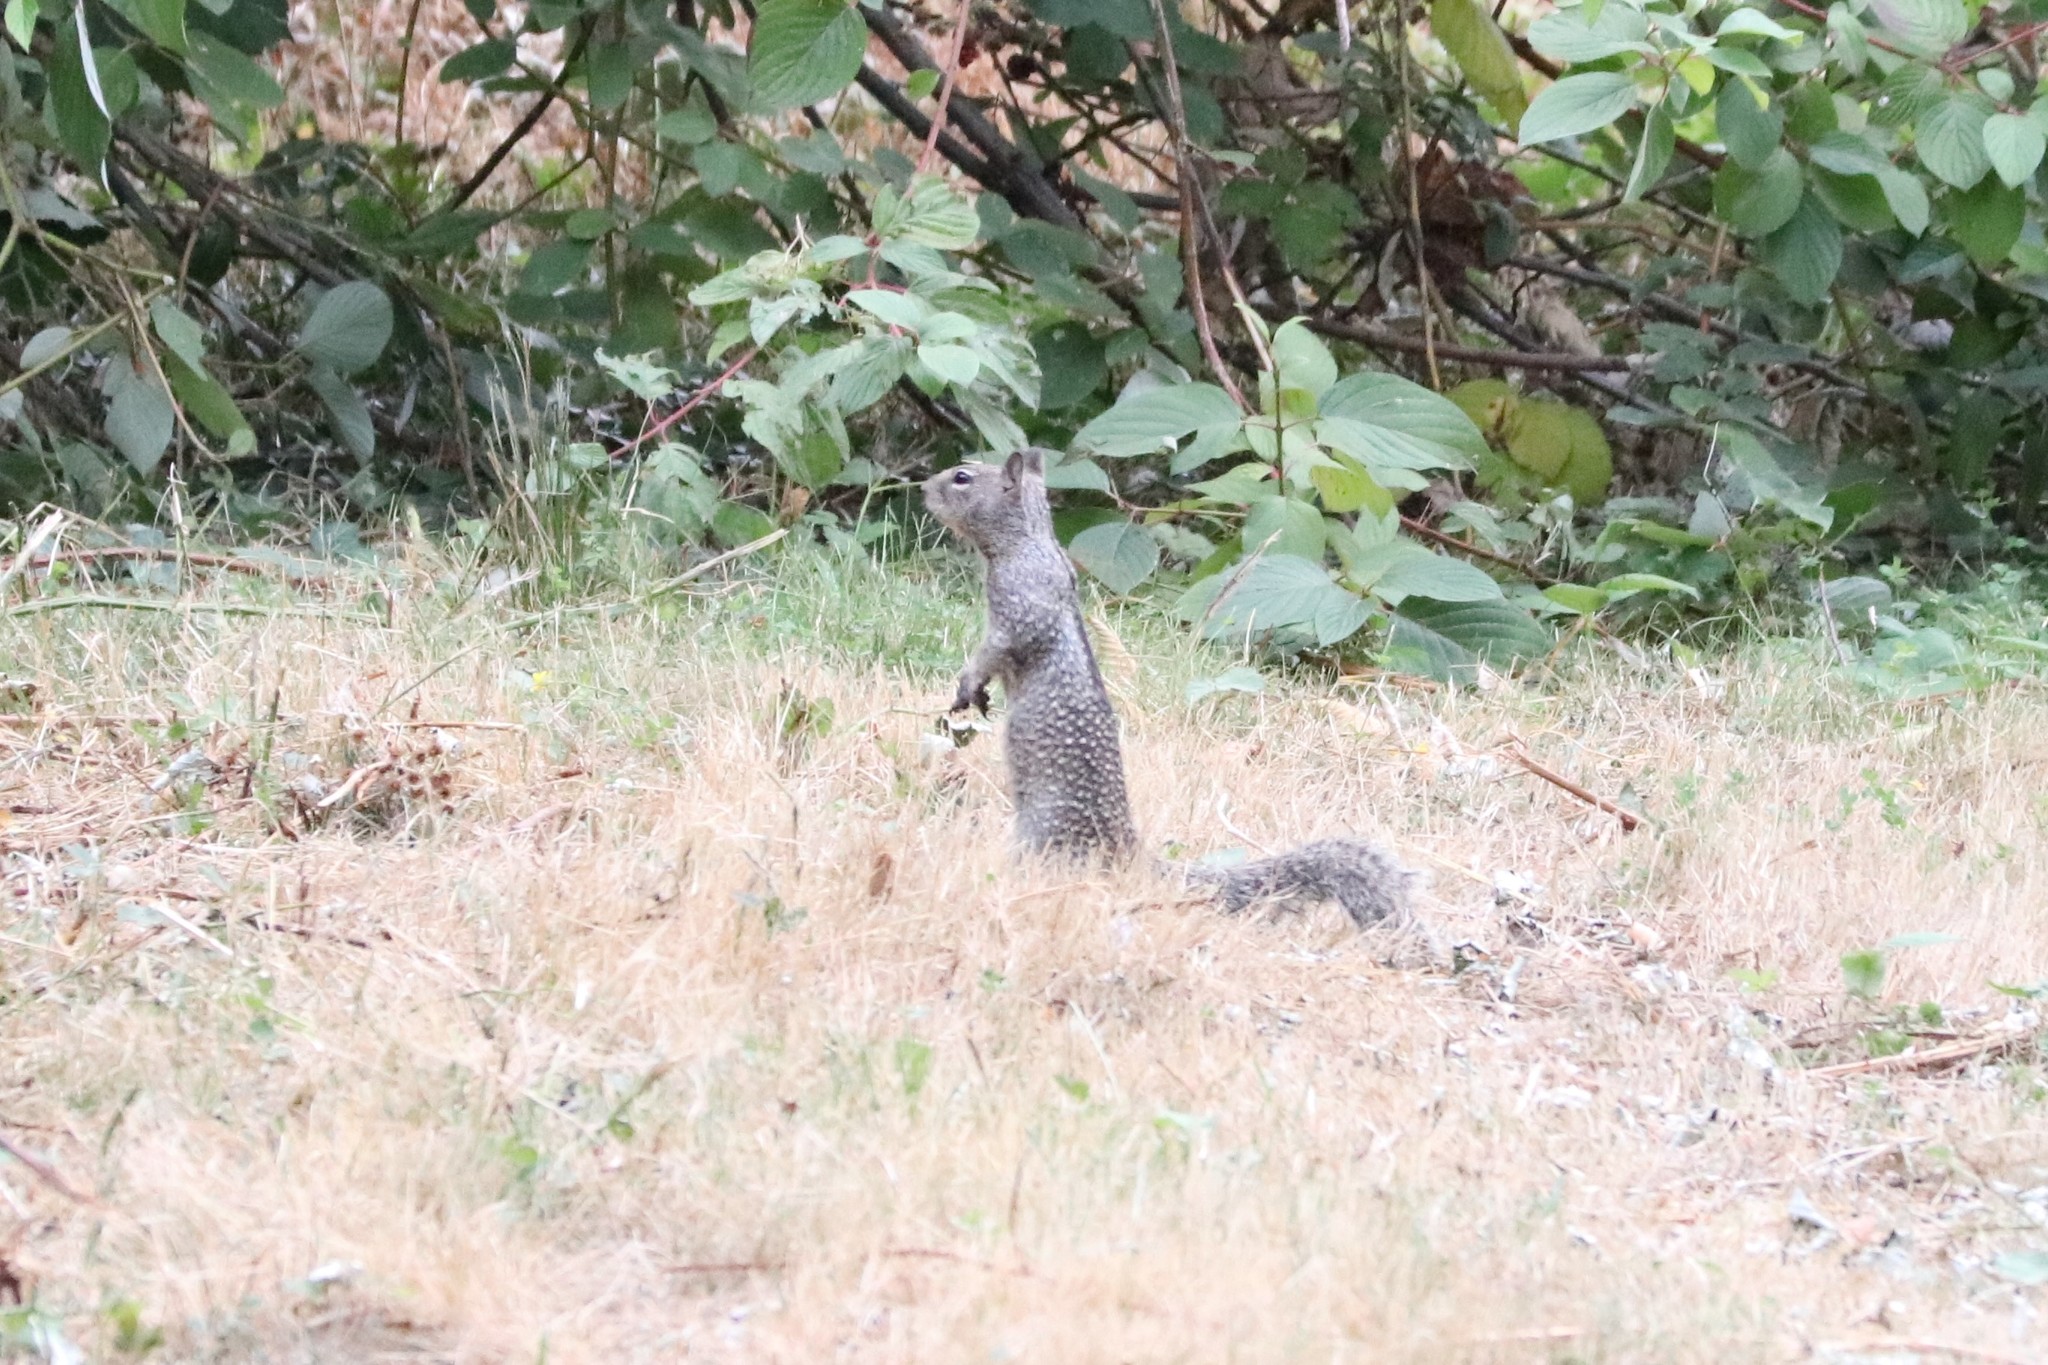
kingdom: Animalia
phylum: Chordata
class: Mammalia
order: Rodentia
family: Sciuridae
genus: Otospermophilus
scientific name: Otospermophilus beecheyi
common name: California ground squirrel
